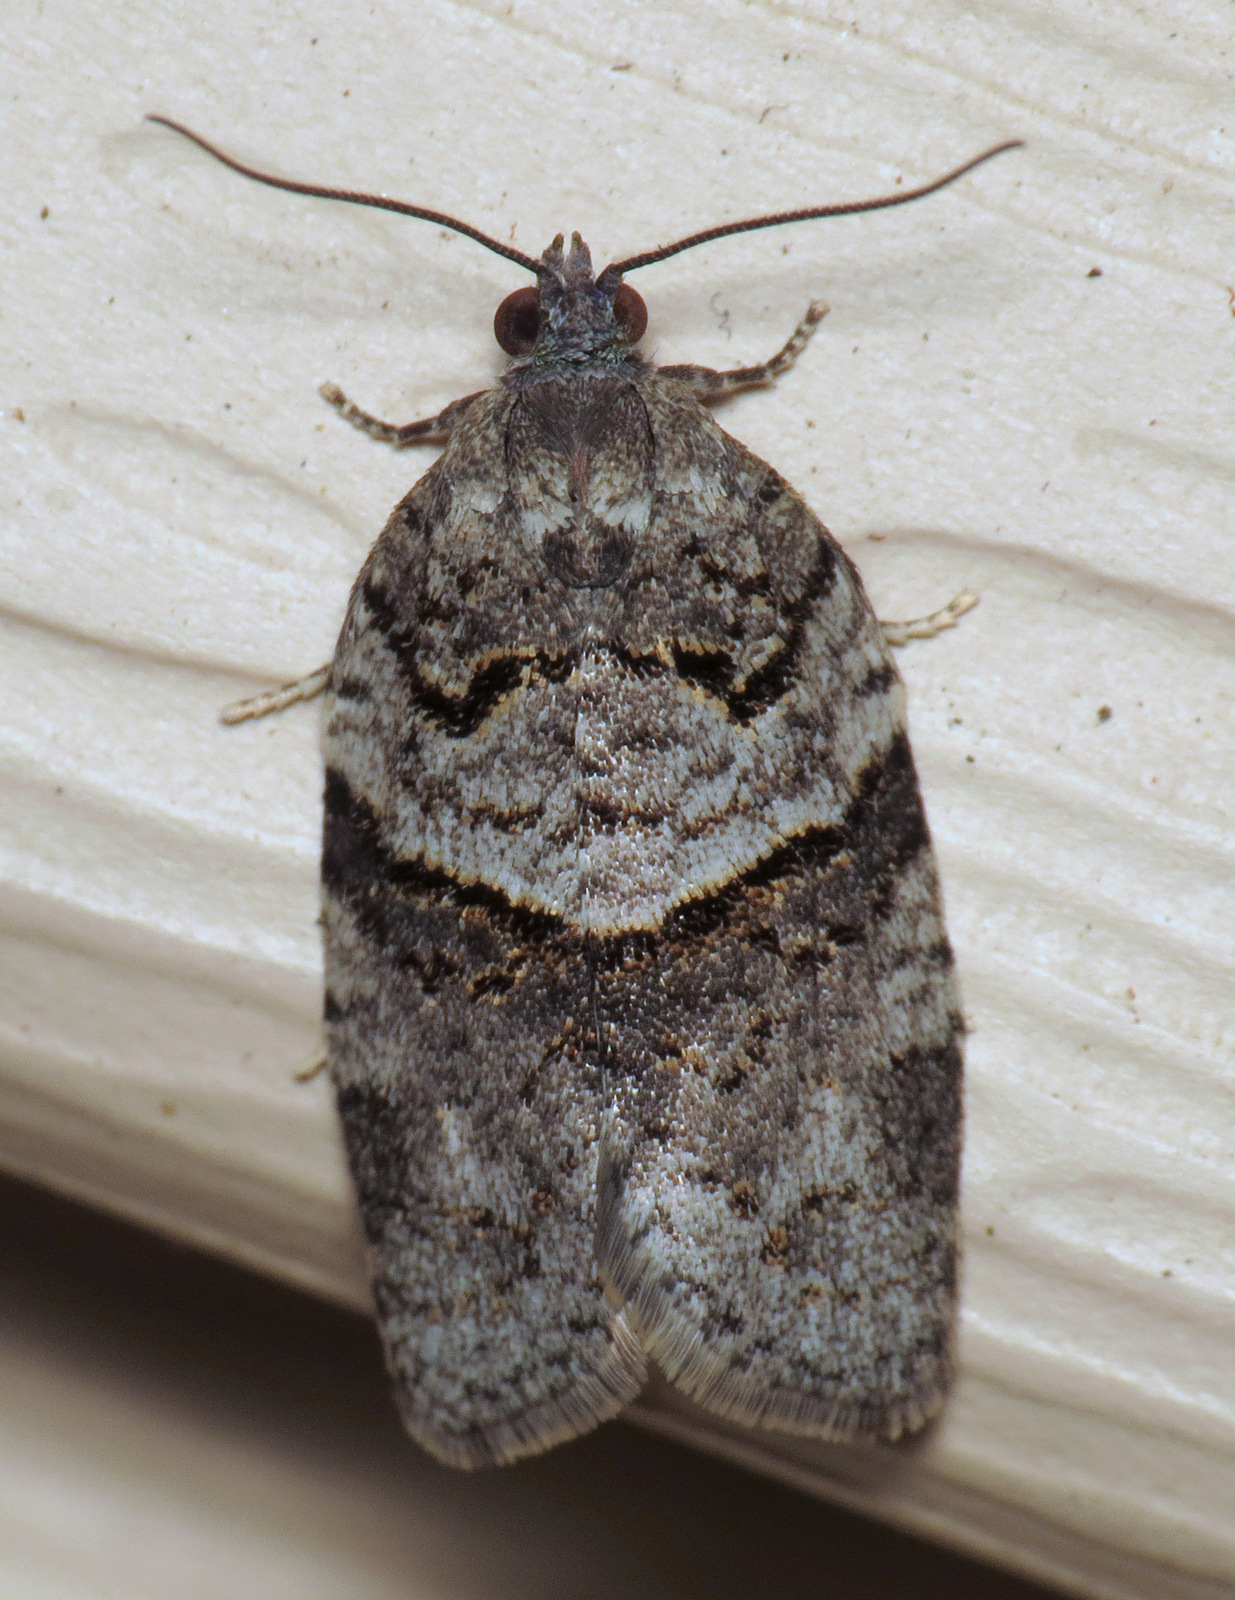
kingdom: Animalia
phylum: Arthropoda
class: Insecta
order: Lepidoptera
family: Tortricidae
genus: Syndemis
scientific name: Syndemis afflictana
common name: Gray leafroller moth
